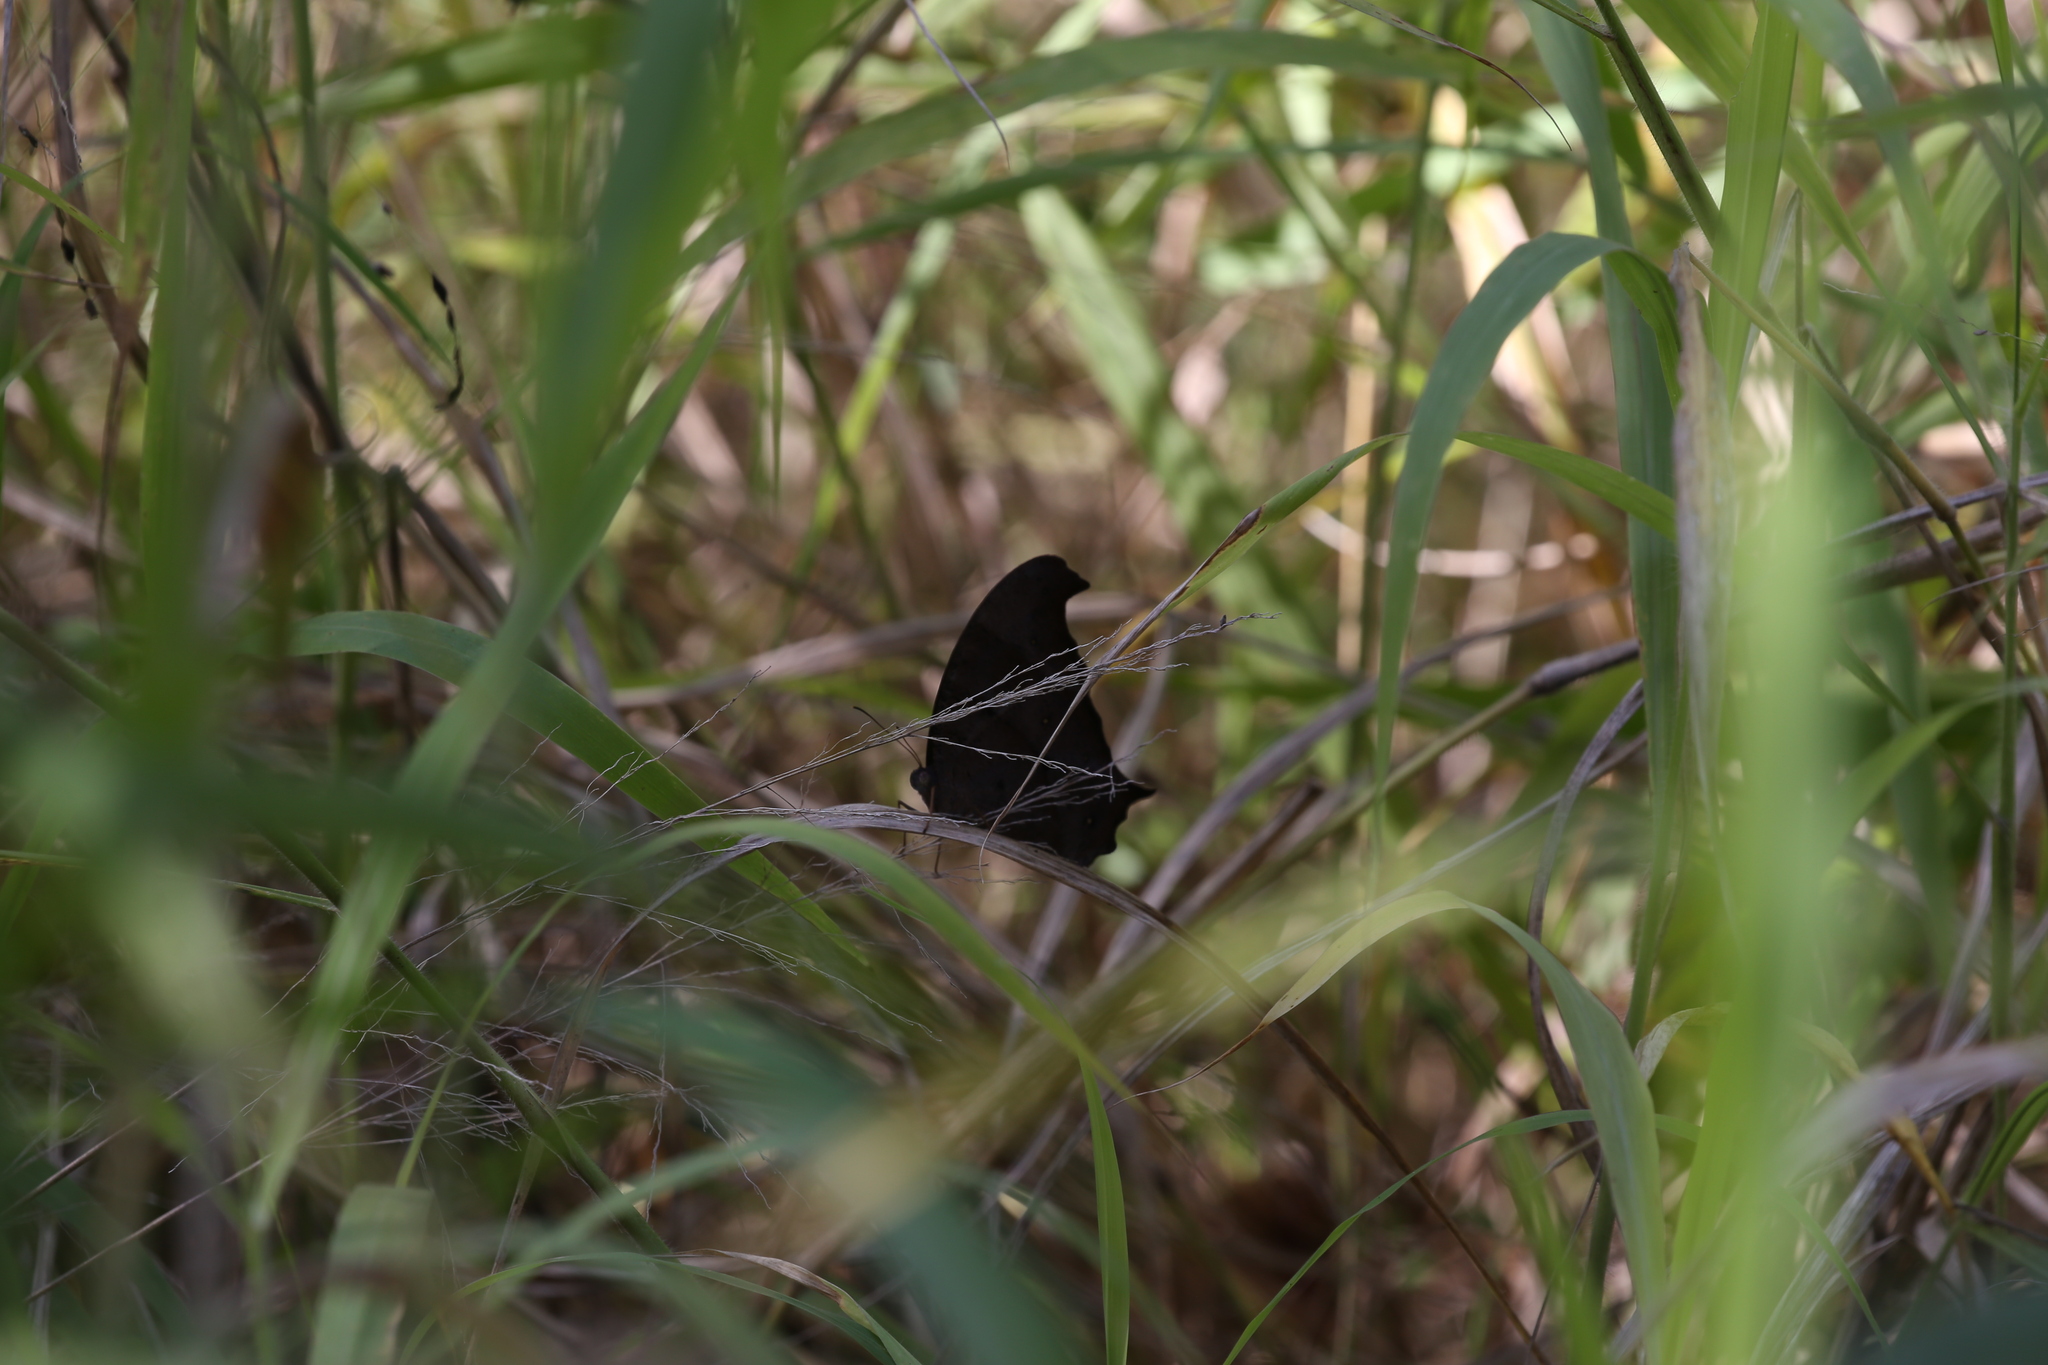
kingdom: Animalia
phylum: Arthropoda
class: Insecta
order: Lepidoptera
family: Nymphalidae
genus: Melanitis
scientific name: Melanitis leda
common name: Twilight brown
